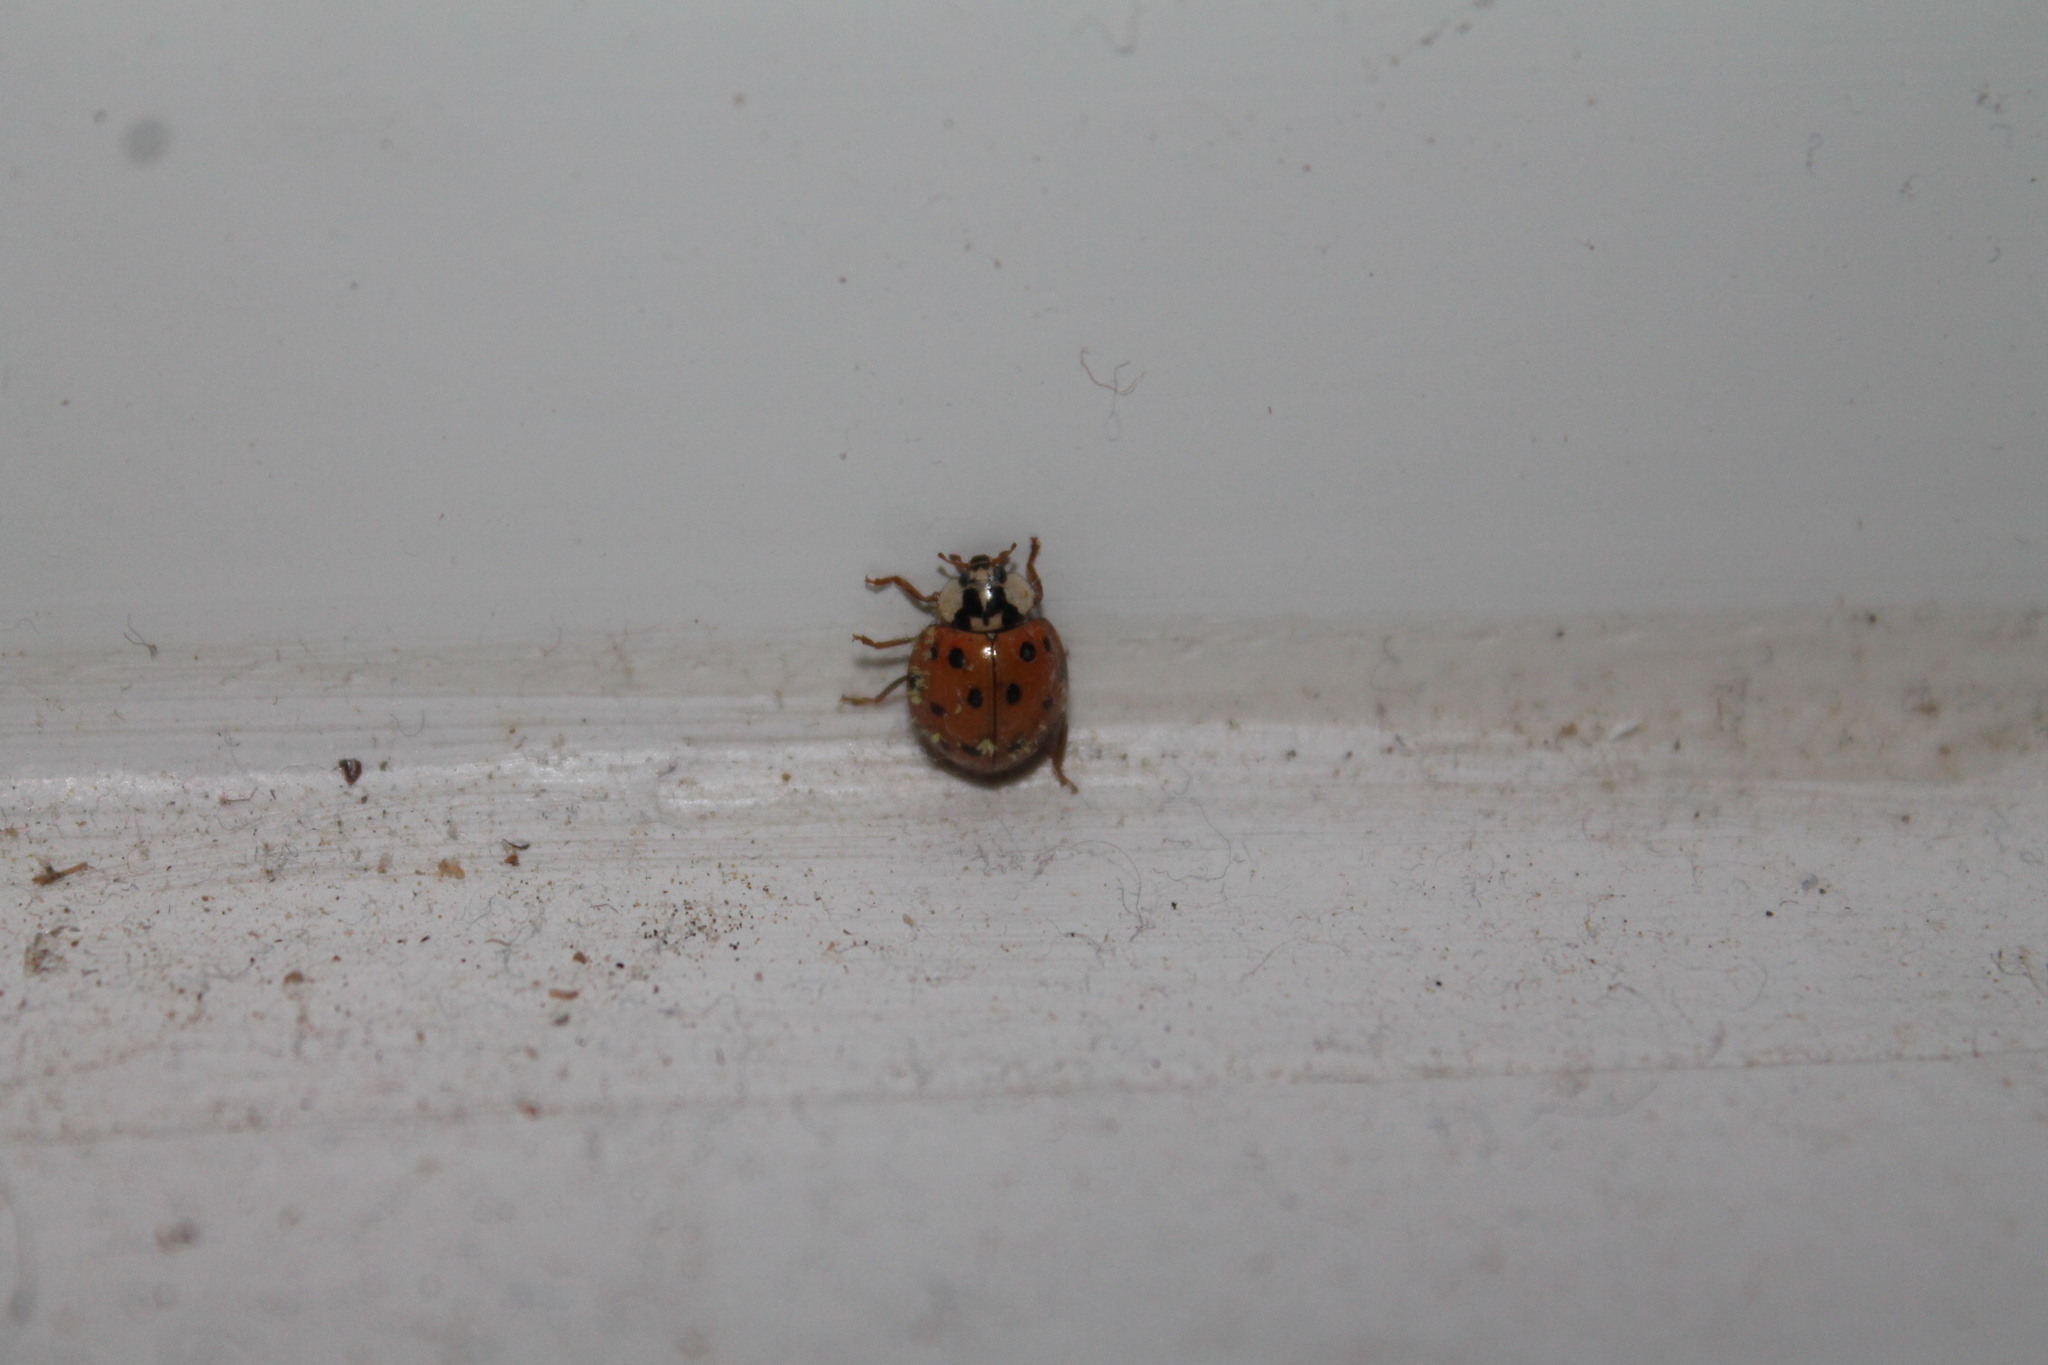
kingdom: Fungi
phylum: Ascomycota
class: Laboulbeniomycetes
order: Laboulbeniales
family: Laboulbeniaceae
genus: Hesperomyces
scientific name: Hesperomyces harmoniae
